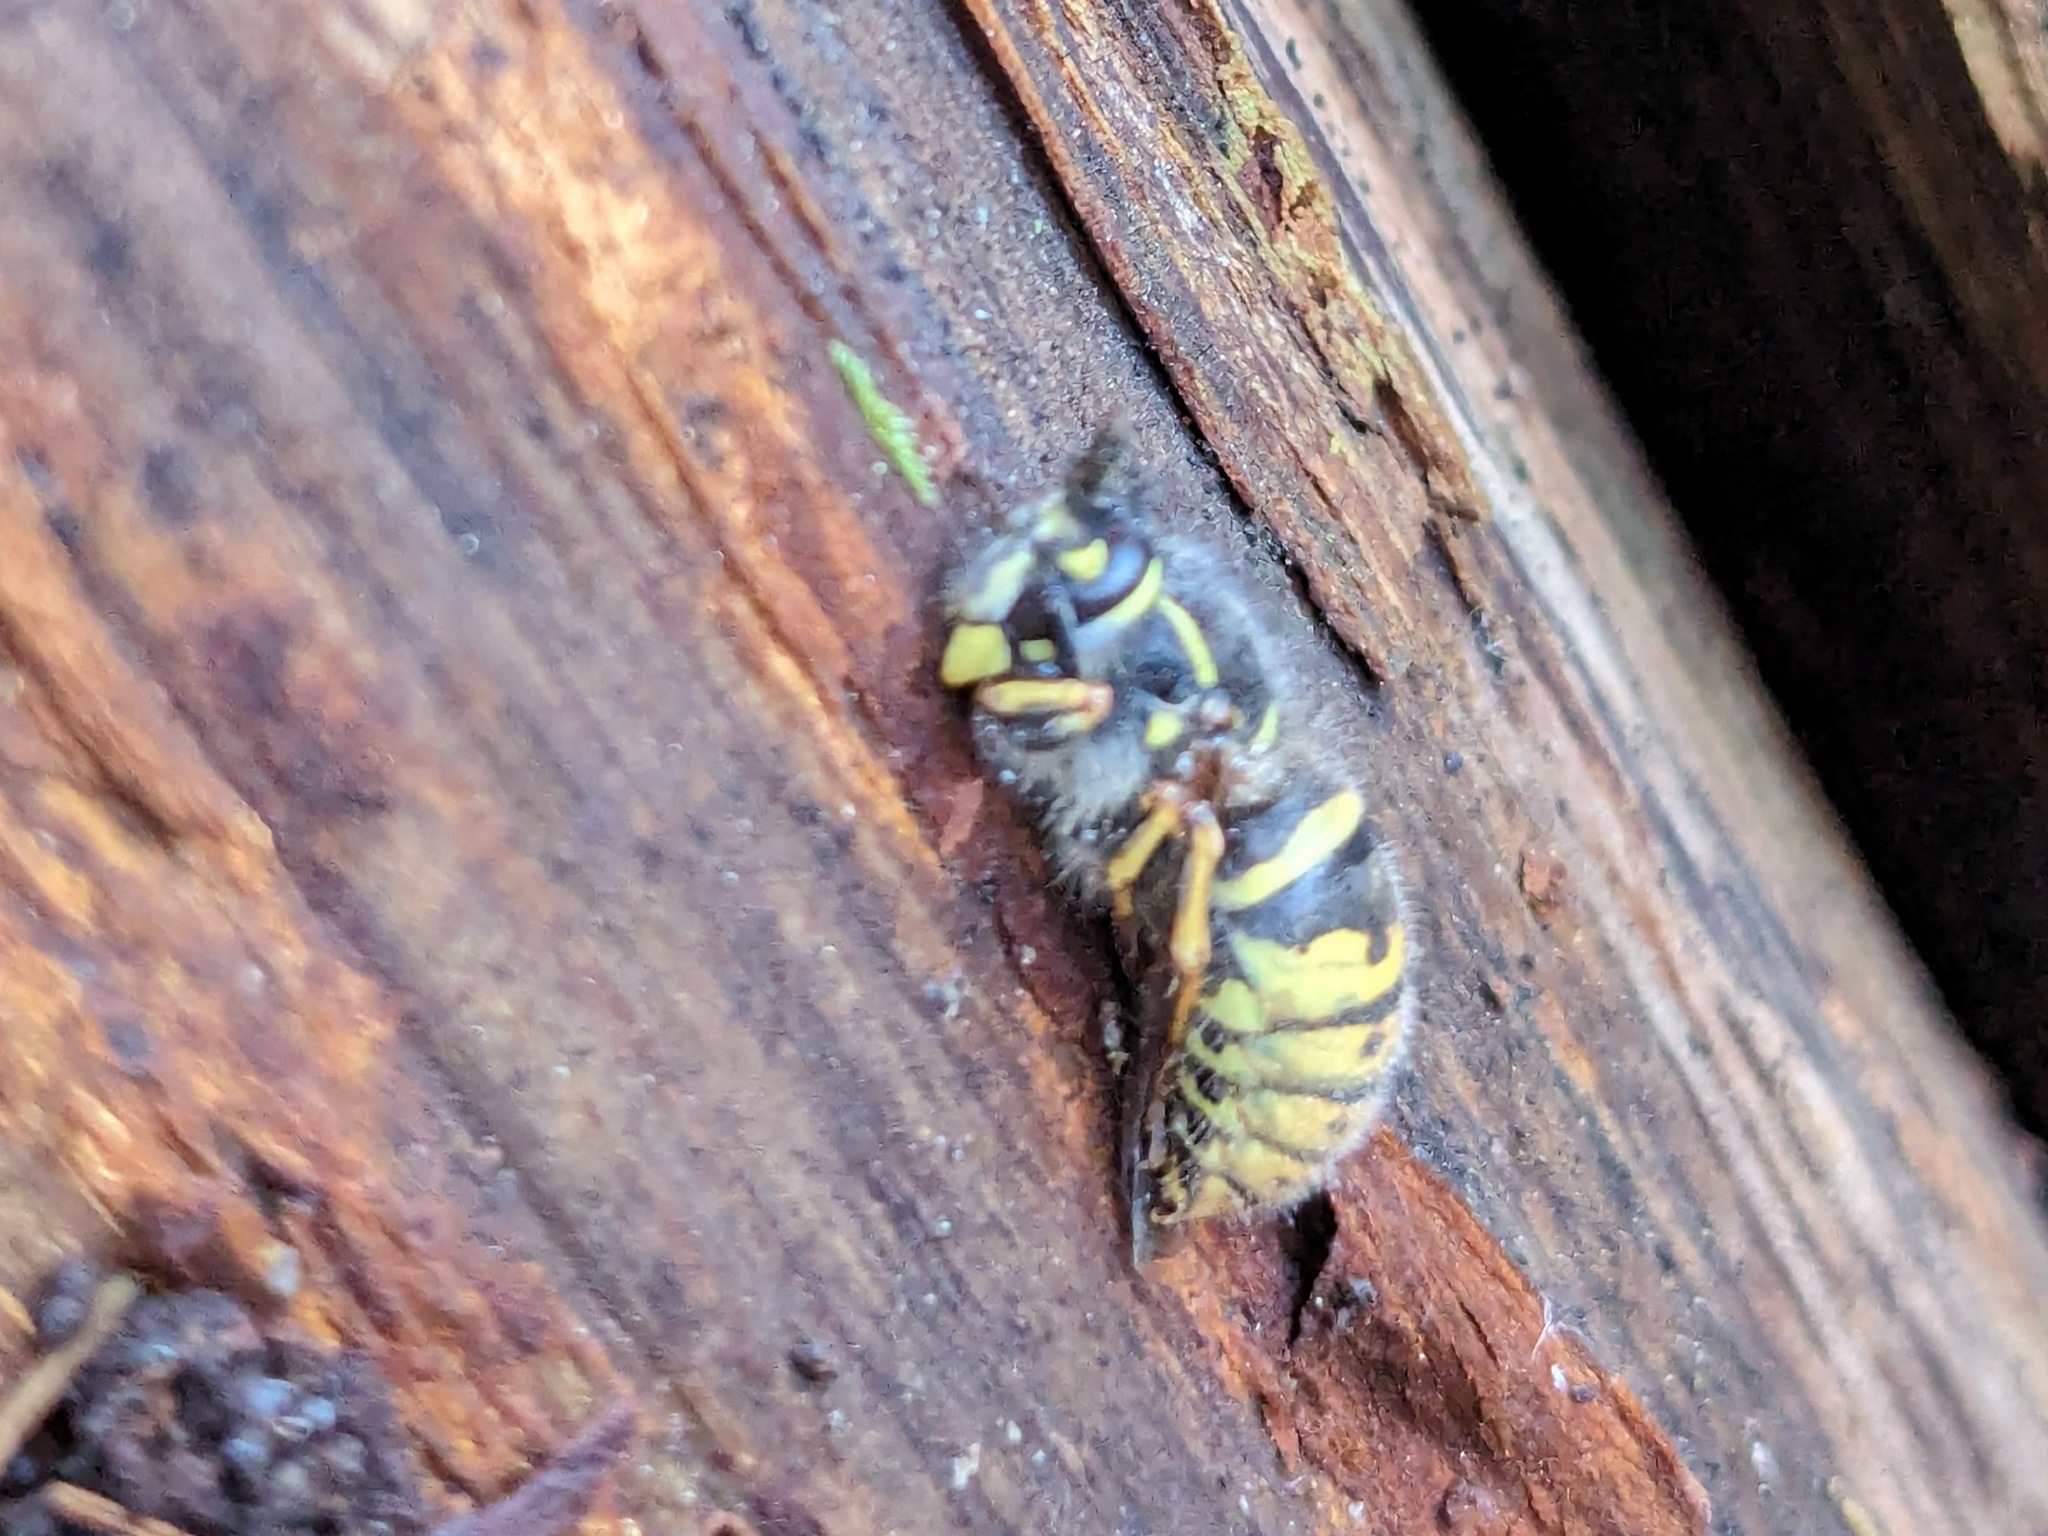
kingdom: Animalia
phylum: Arthropoda
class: Insecta
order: Hymenoptera
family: Vespidae
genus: Vespula
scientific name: Vespula vulgaris
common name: Common wasp
